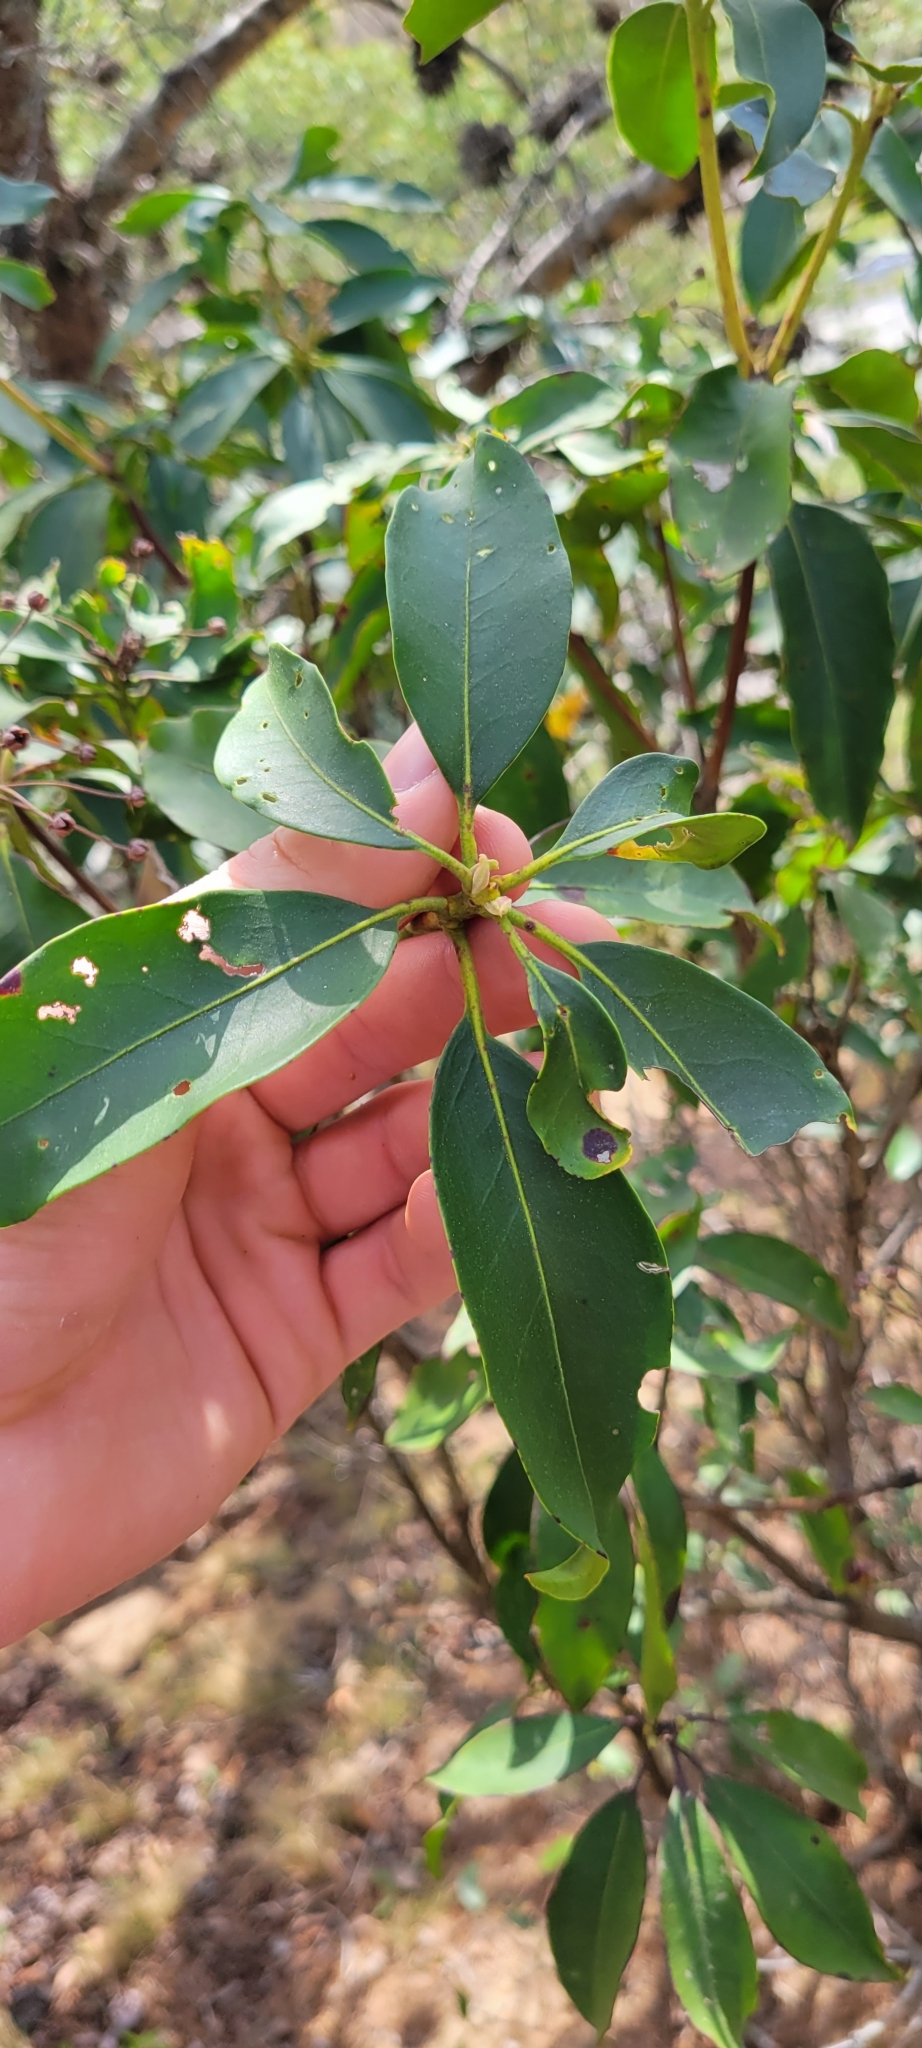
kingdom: Plantae
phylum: Tracheophyta
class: Magnoliopsida
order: Ericales
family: Ericaceae
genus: Kalmia
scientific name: Kalmia latifolia
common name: Mountain-laurel
